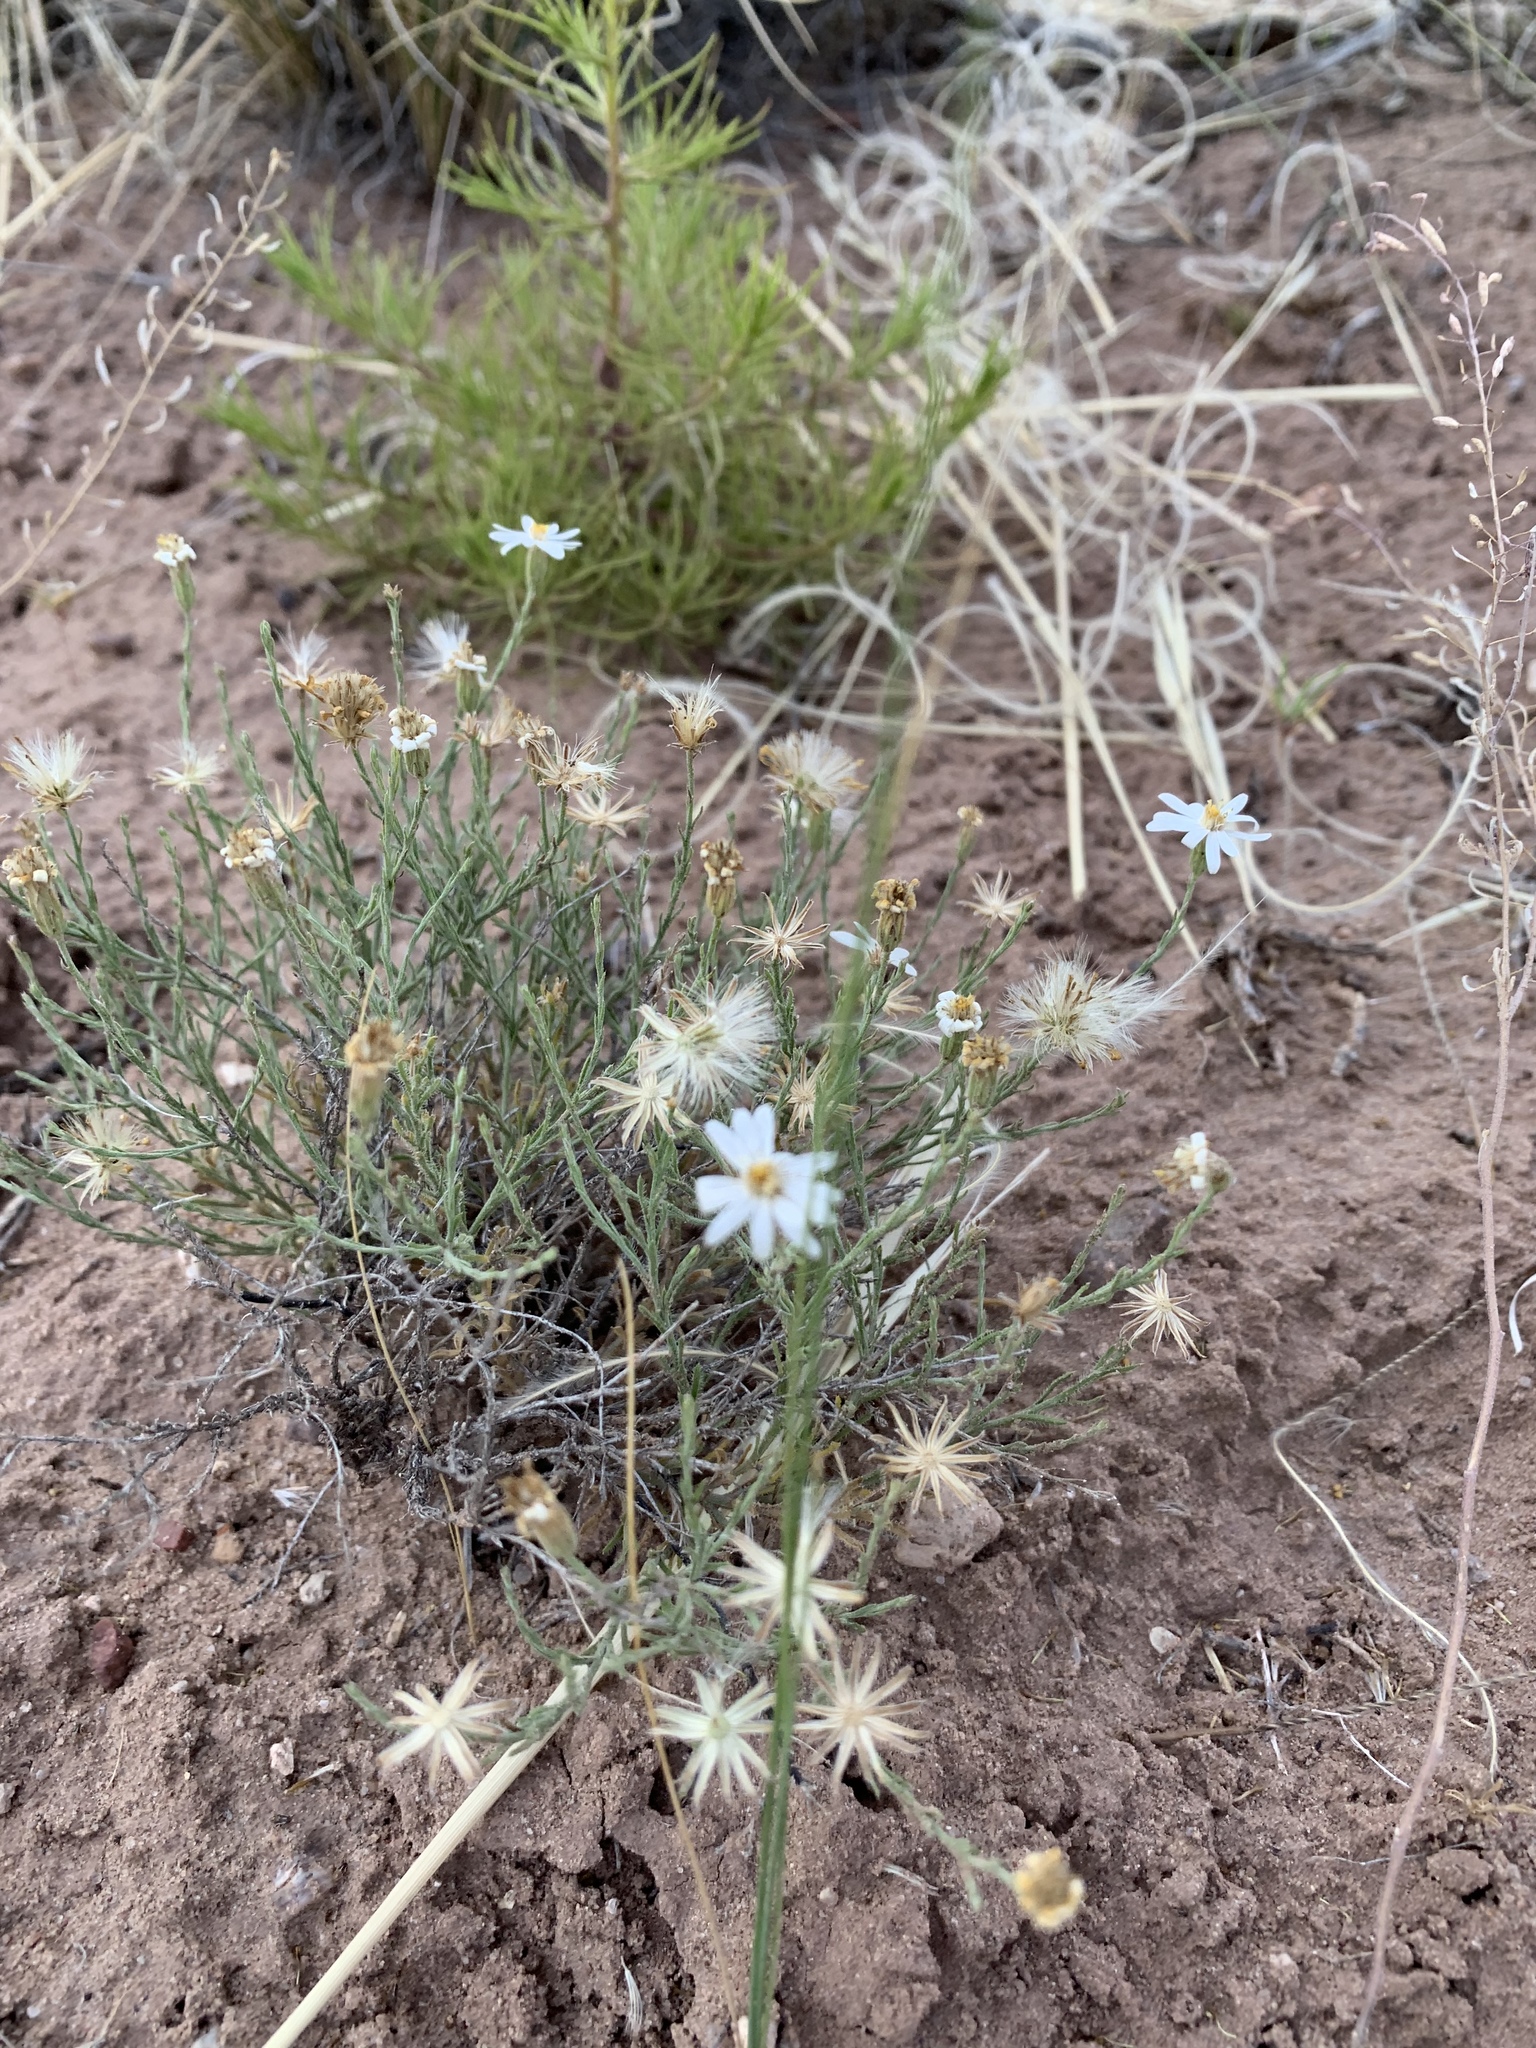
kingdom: Plantae
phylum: Tracheophyta
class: Magnoliopsida
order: Asterales
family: Asteraceae
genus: Chaetopappa
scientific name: Chaetopappa ericoides
